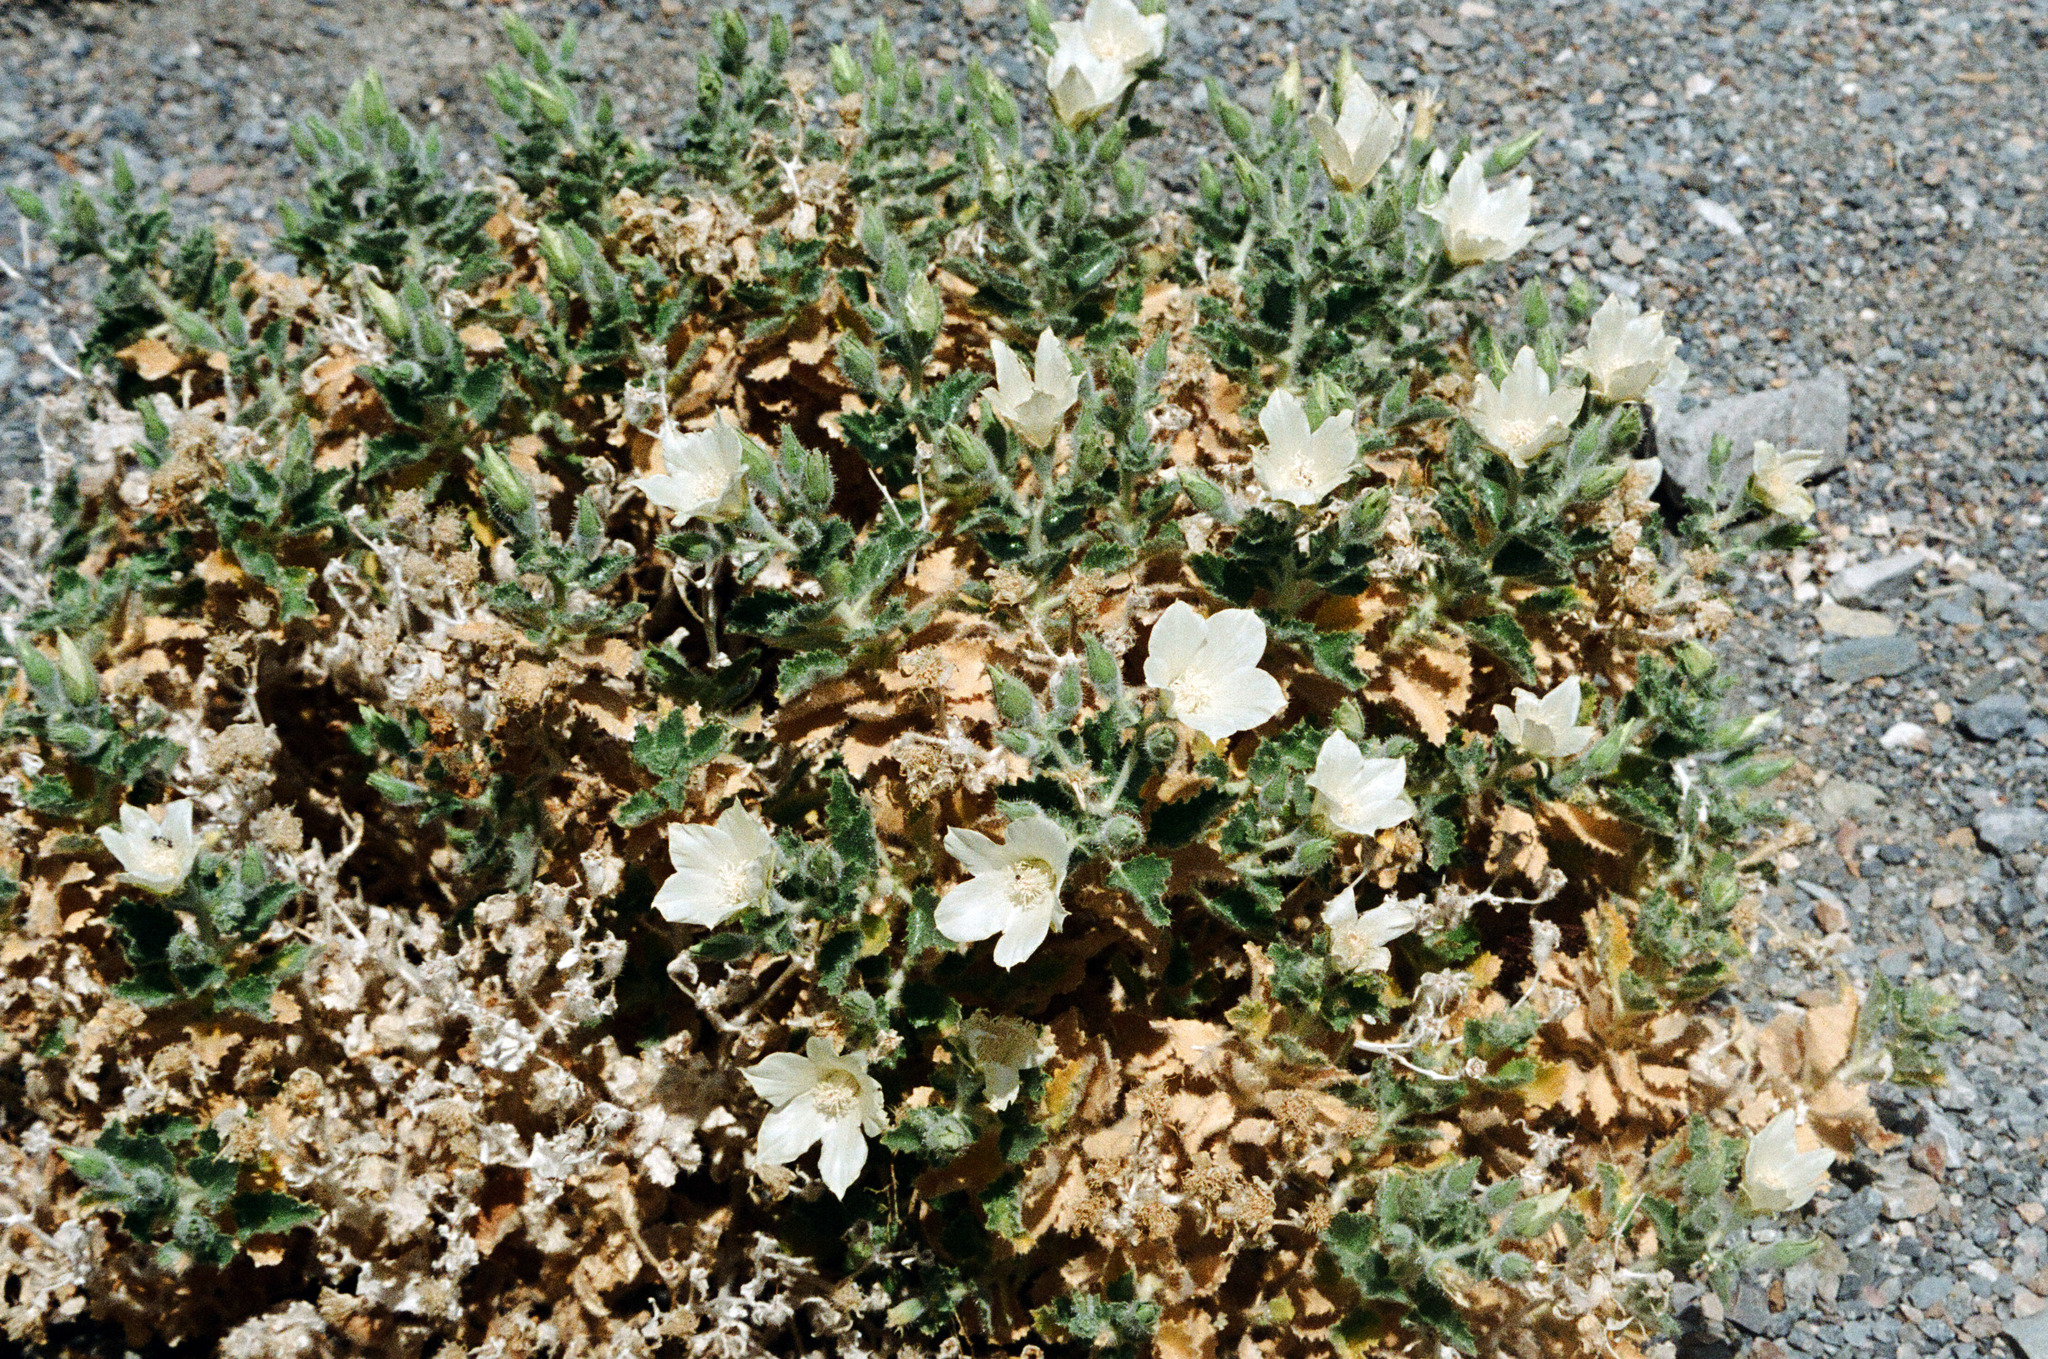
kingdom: Plantae
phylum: Tracheophyta
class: Magnoliopsida
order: Cornales
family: Loasaceae
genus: Eucnide
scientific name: Eucnide urens
